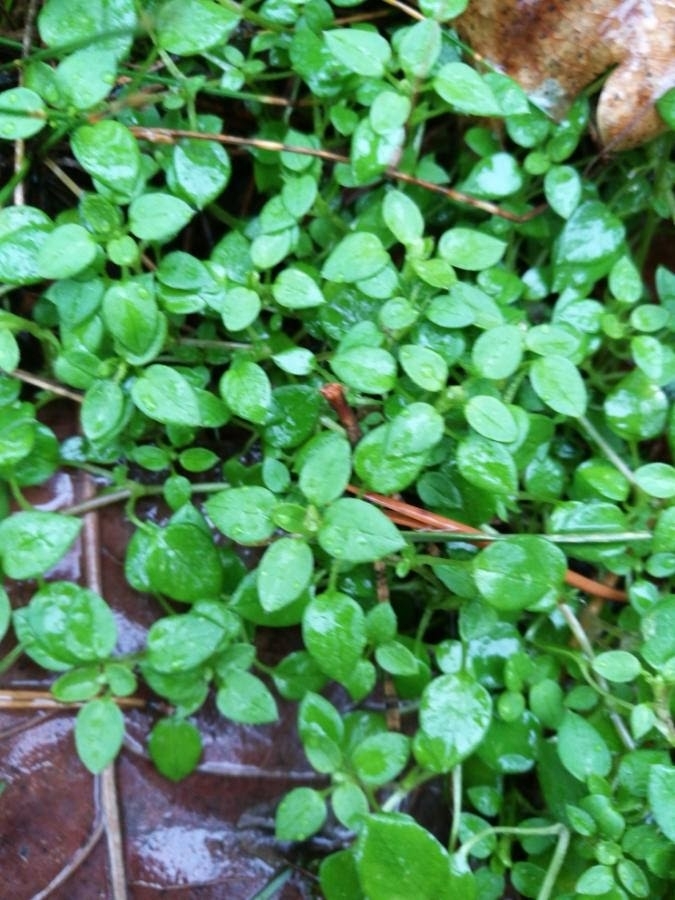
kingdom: Plantae
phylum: Tracheophyta
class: Magnoliopsida
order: Caryophyllales
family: Caryophyllaceae
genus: Stellaria
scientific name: Stellaria media
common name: Common chickweed
